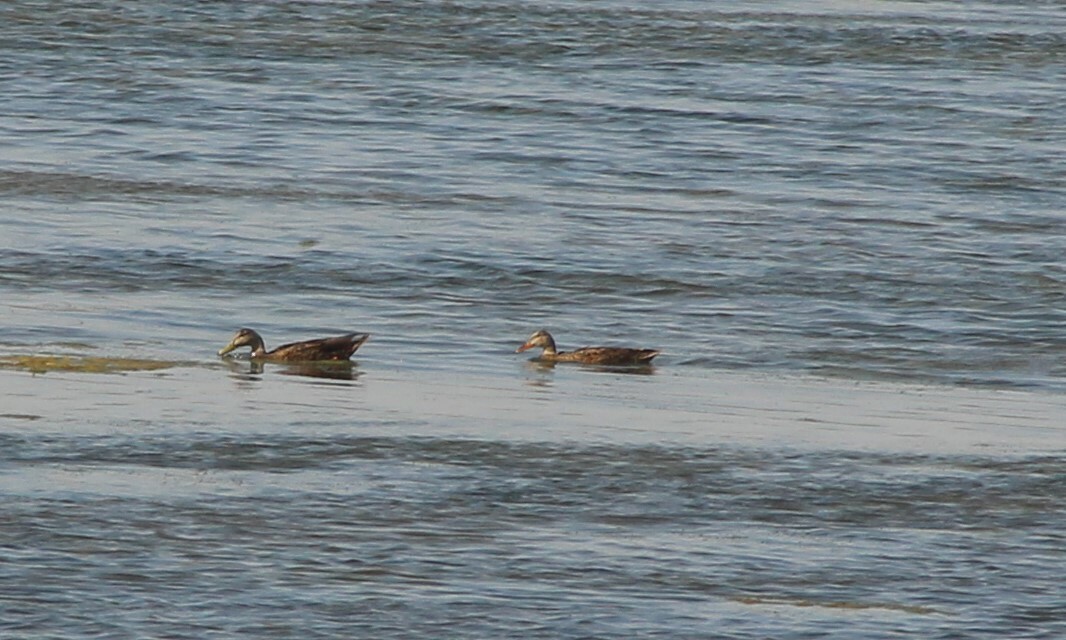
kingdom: Animalia
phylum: Chordata
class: Aves
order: Anseriformes
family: Anatidae
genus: Anas
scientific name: Anas diazi
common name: Mexican duck
